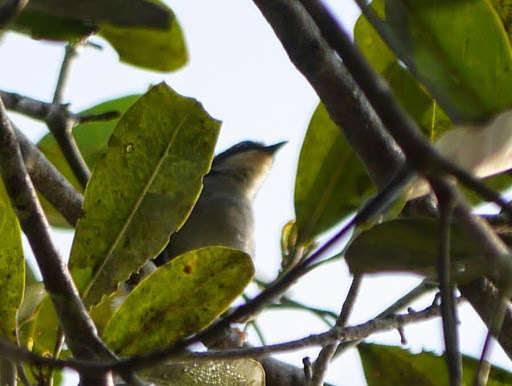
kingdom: Animalia
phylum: Chordata
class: Aves
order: Passeriformes
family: Cisticolidae
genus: Apalis
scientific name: Apalis goslingi
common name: Gosling's apalis
